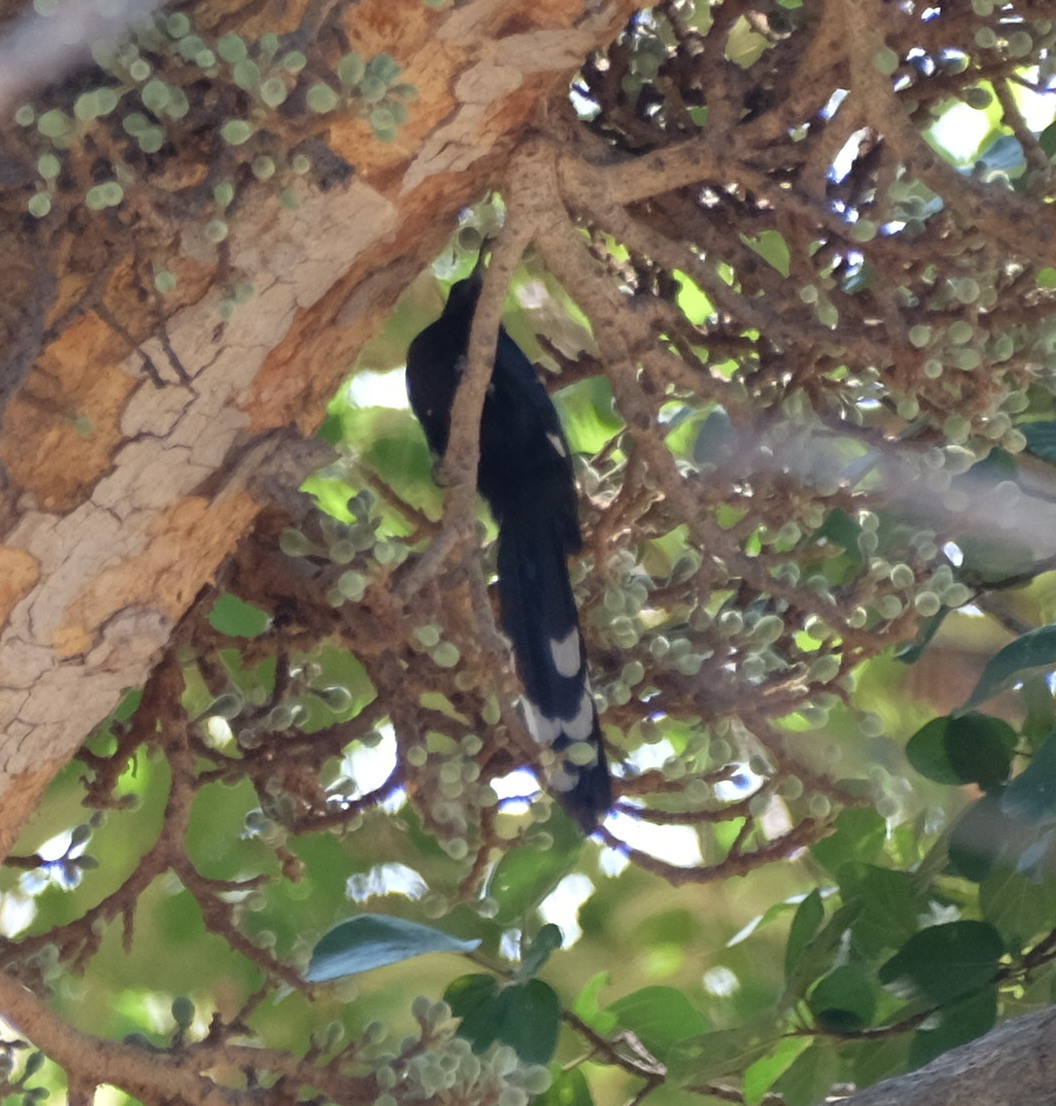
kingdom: Animalia
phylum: Chordata
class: Aves
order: Bucerotiformes
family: Phoeniculidae
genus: Rhinopomastus
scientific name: Rhinopomastus cyanomelas
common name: Common scimitarbill
